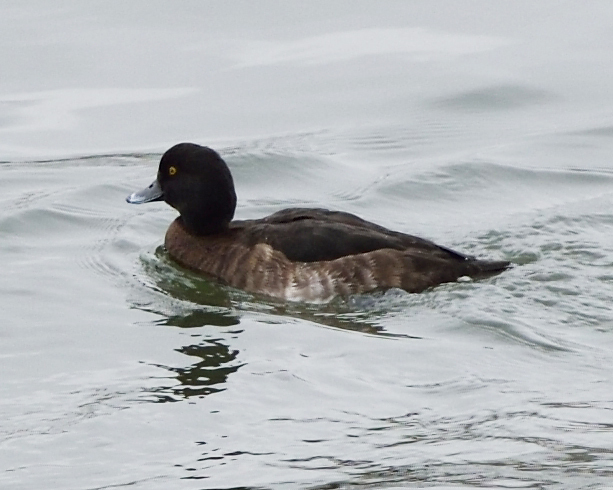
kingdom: Animalia
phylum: Chordata
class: Aves
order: Anseriformes
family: Anatidae
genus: Aythya
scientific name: Aythya fuligula
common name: Tufted duck
